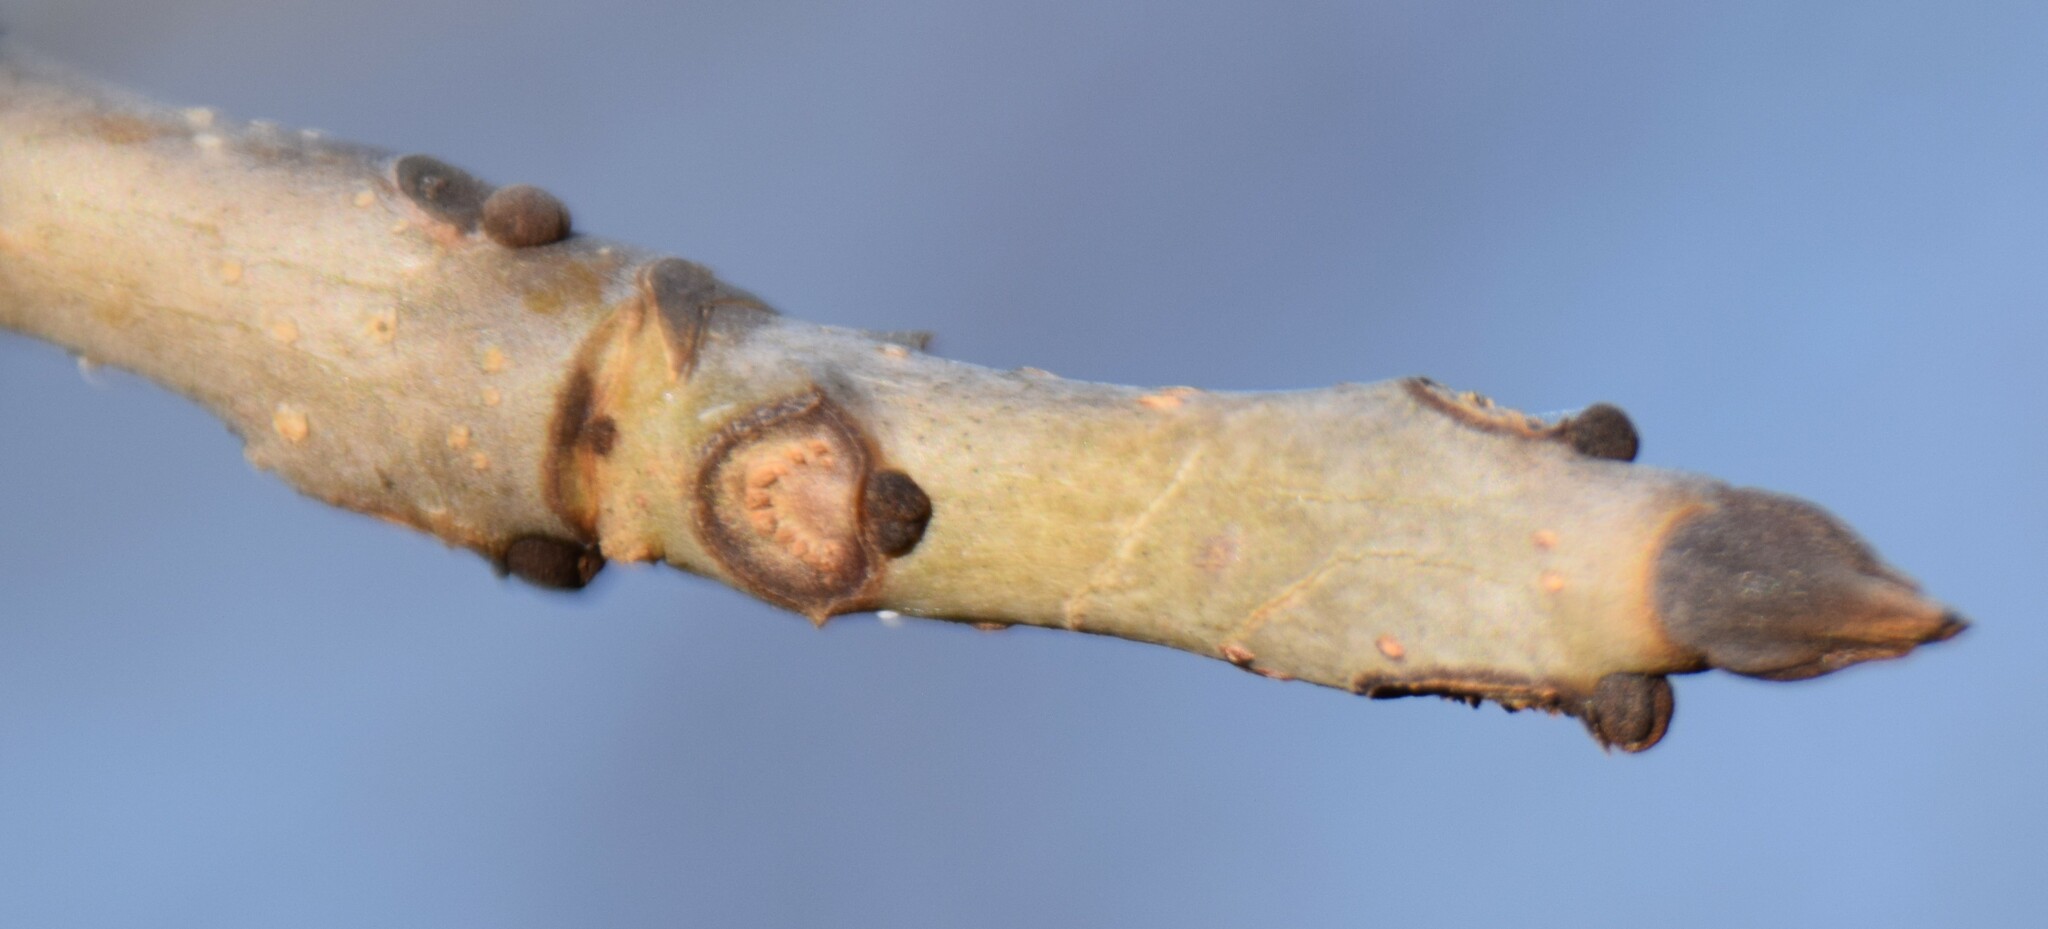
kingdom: Plantae
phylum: Tracheophyta
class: Magnoliopsida
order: Lamiales
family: Oleaceae
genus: Fraxinus
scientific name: Fraxinus nigra
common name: Black ash
